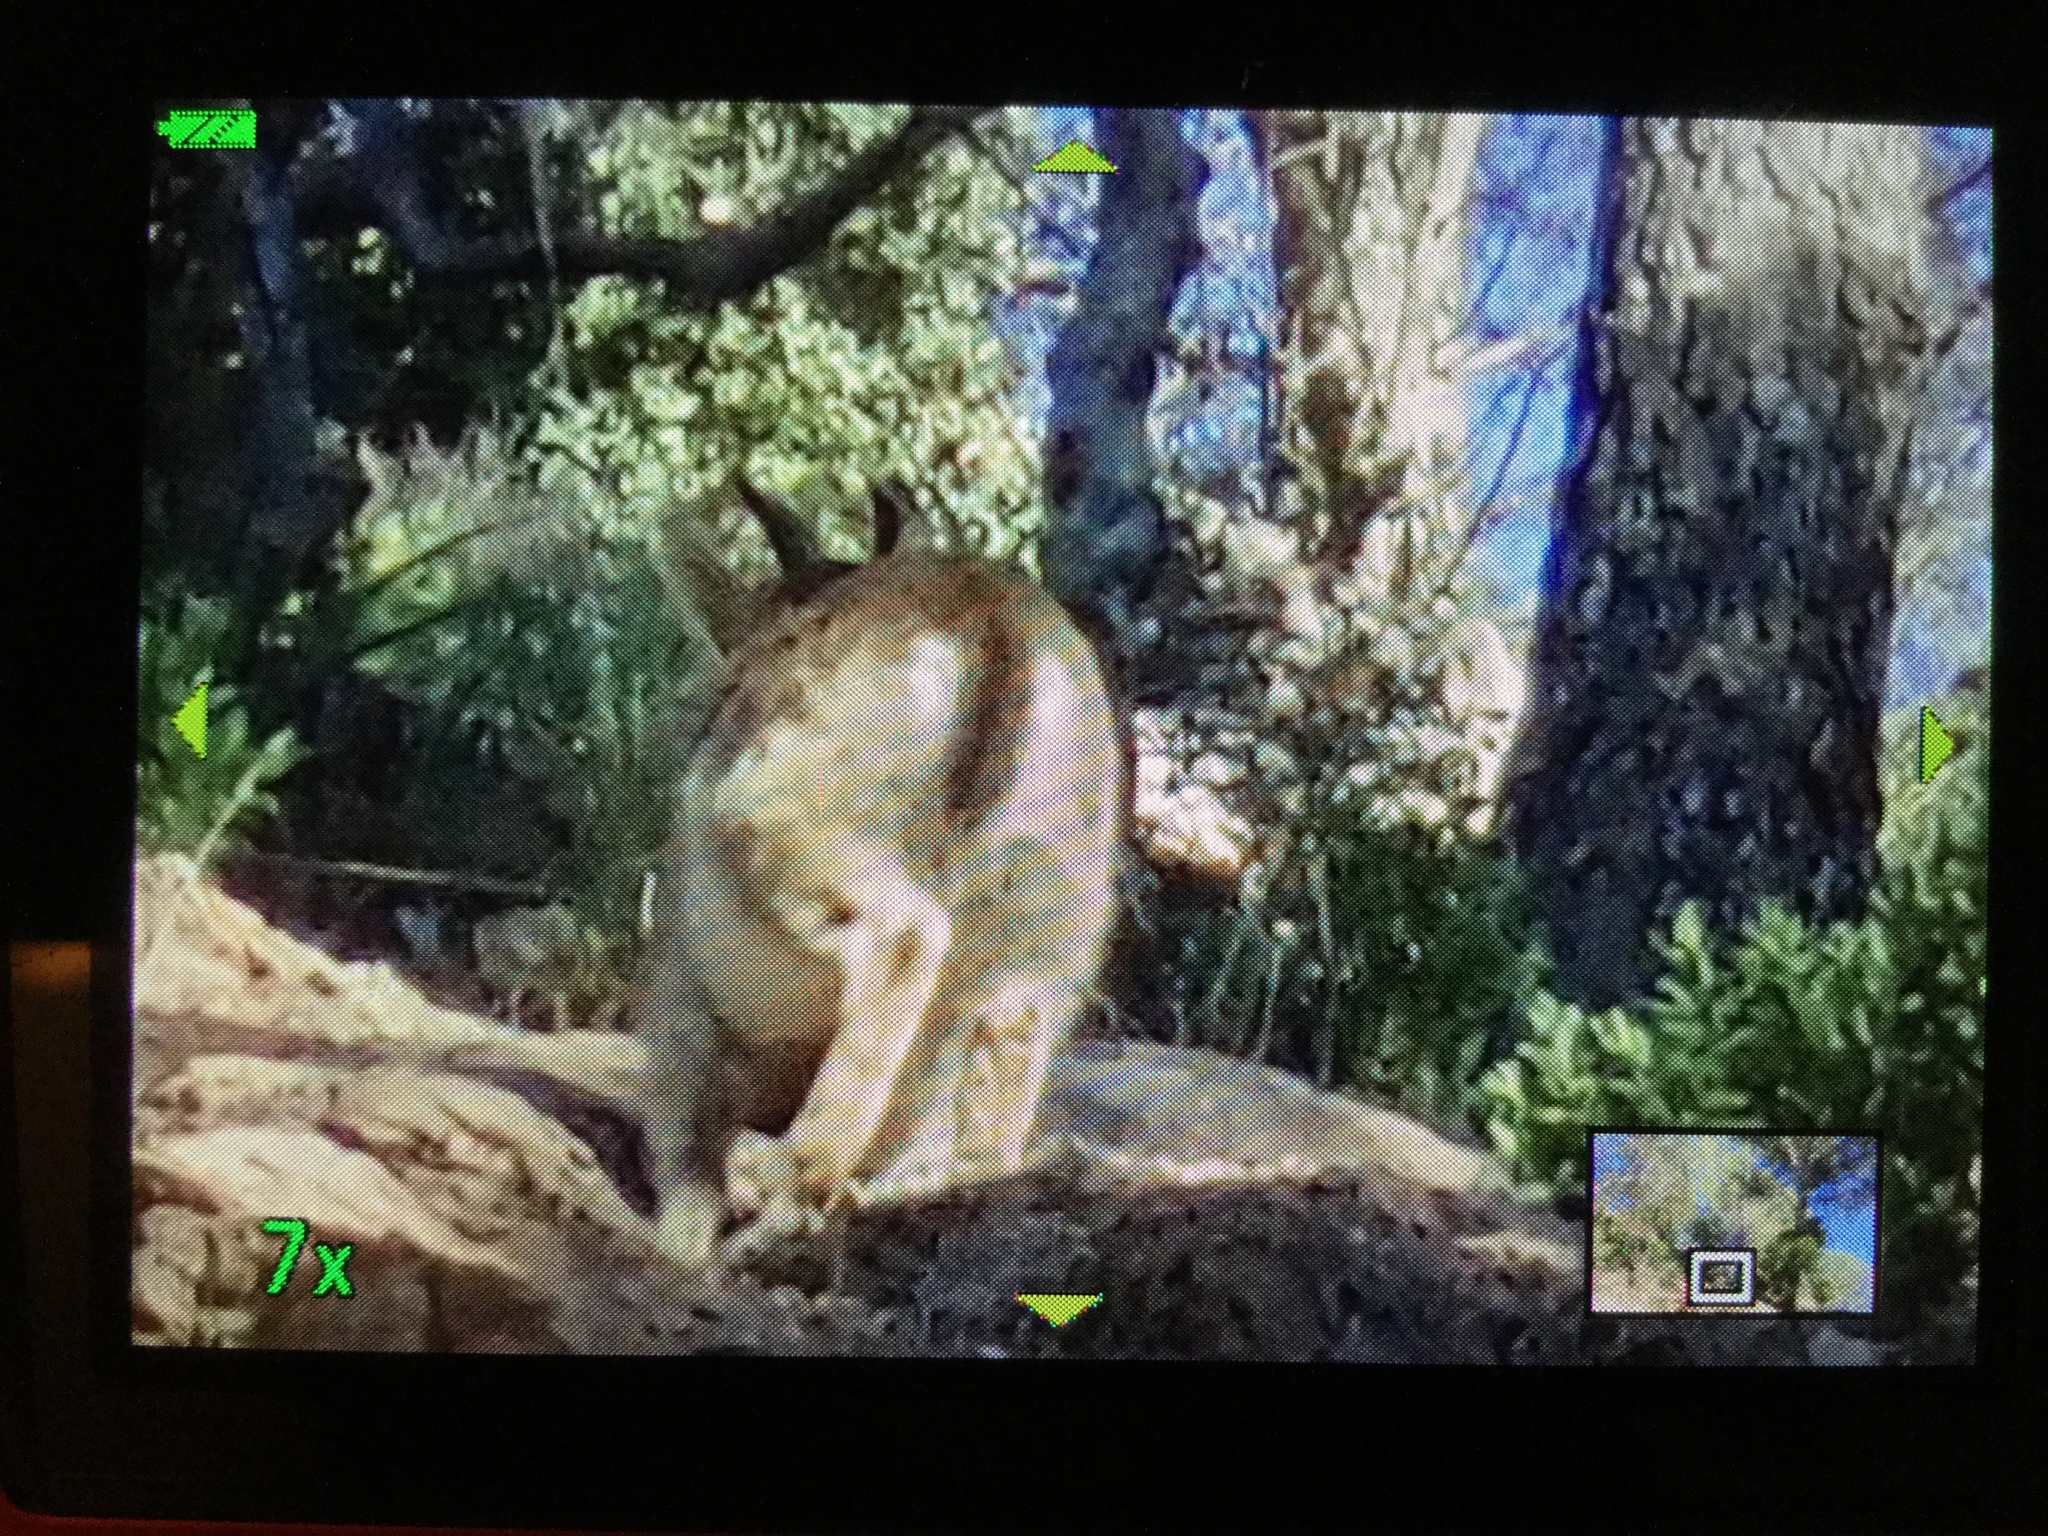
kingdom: Animalia
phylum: Chordata
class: Mammalia
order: Artiodactyla
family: Bovidae
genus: Capra
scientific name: Capra pyrenaica
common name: Spanish ibex
